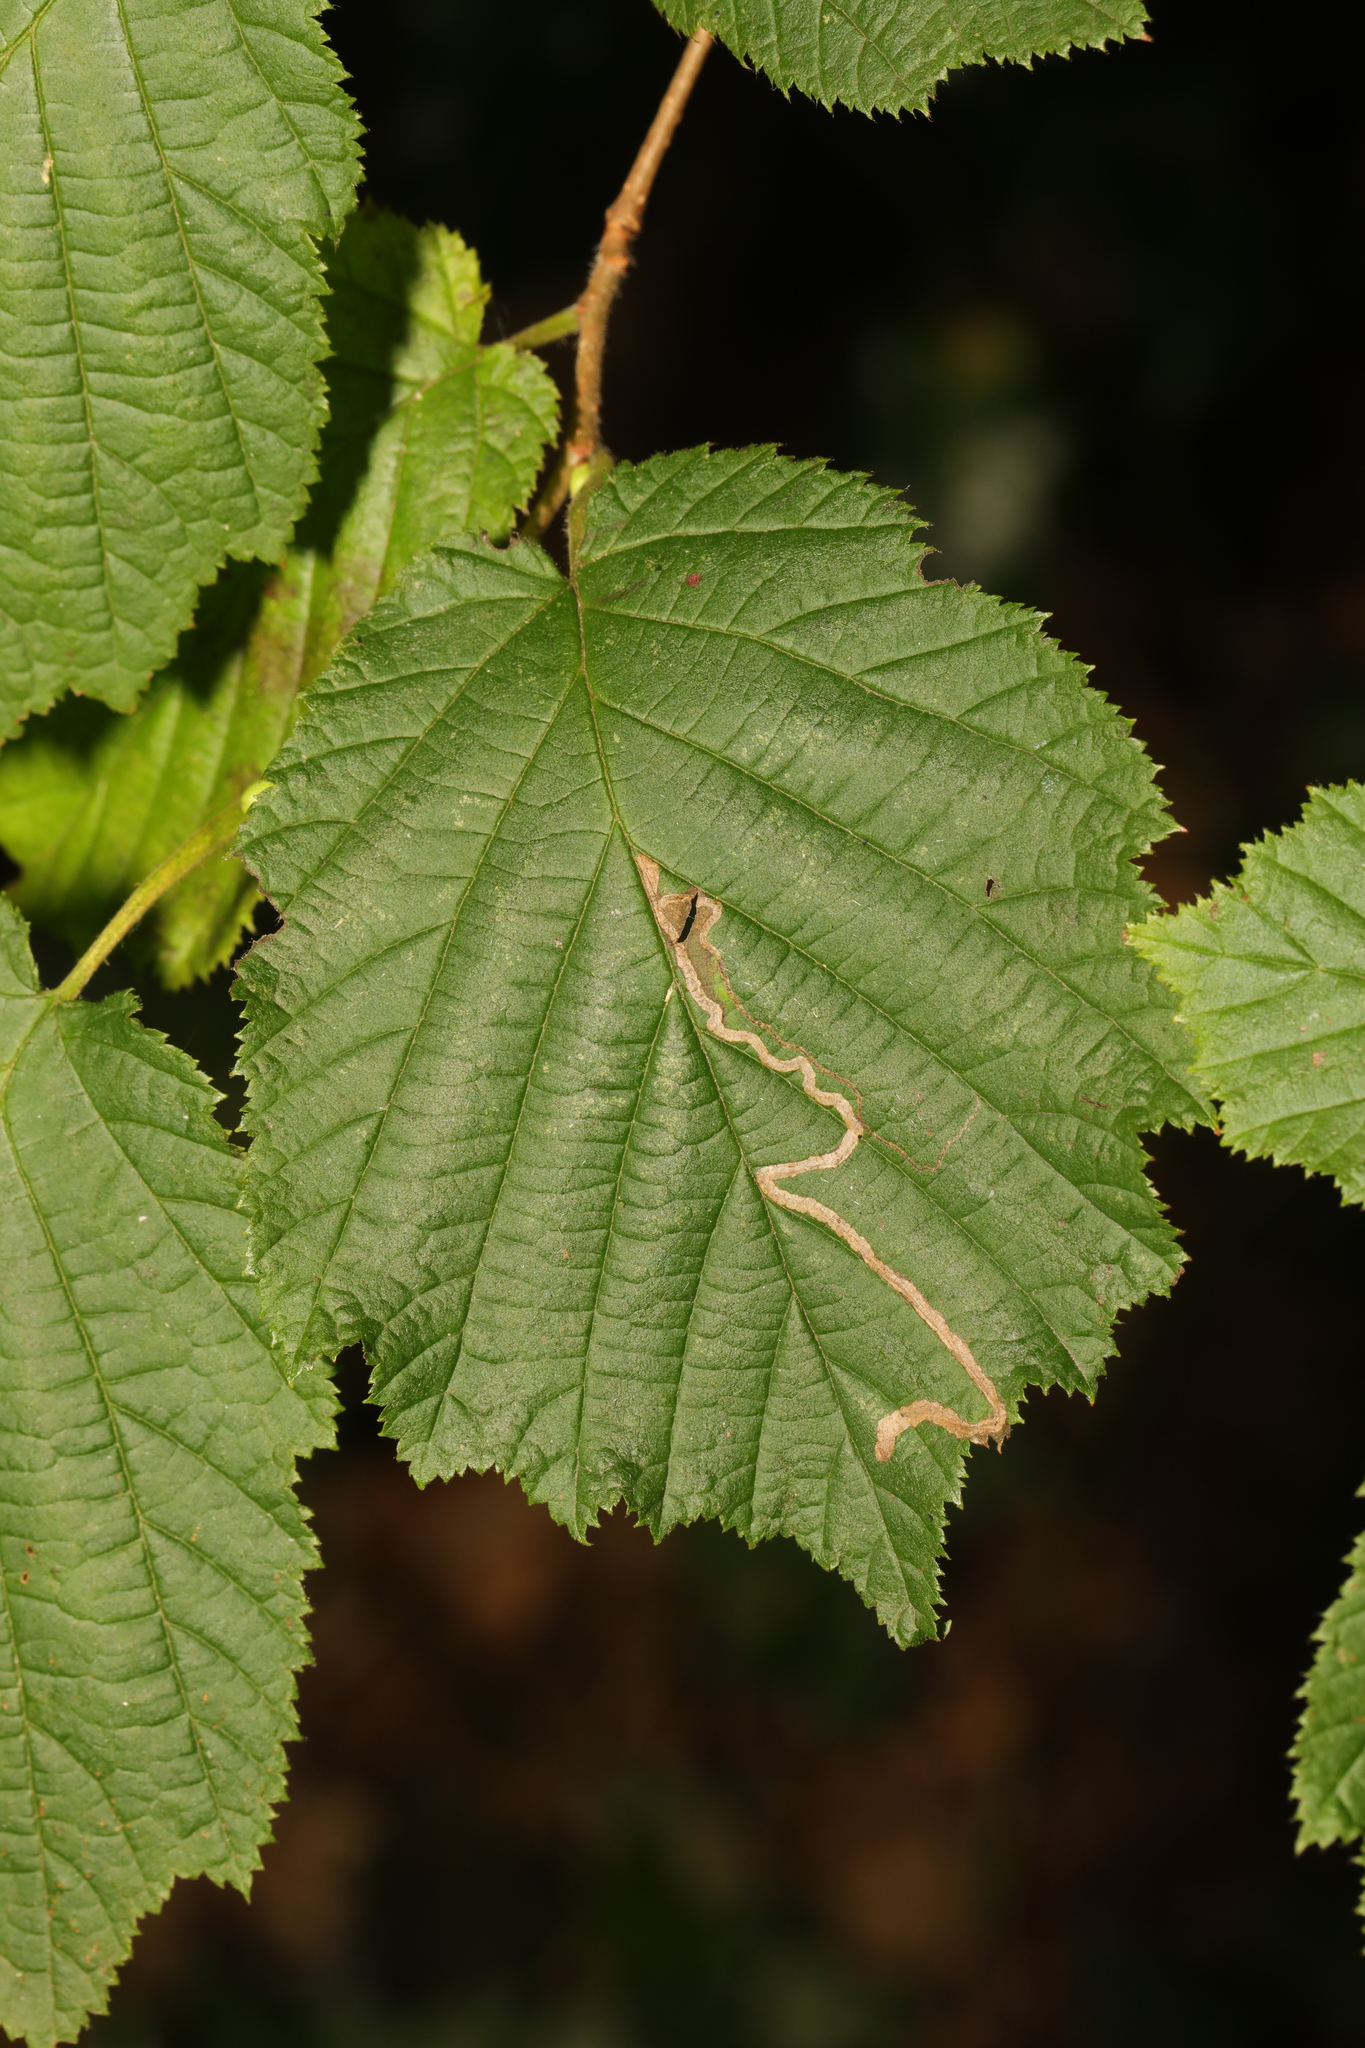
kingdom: Plantae
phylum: Tracheophyta
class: Magnoliopsida
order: Fagales
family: Betulaceae
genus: Corylus
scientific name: Corylus avellana
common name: European hazel
